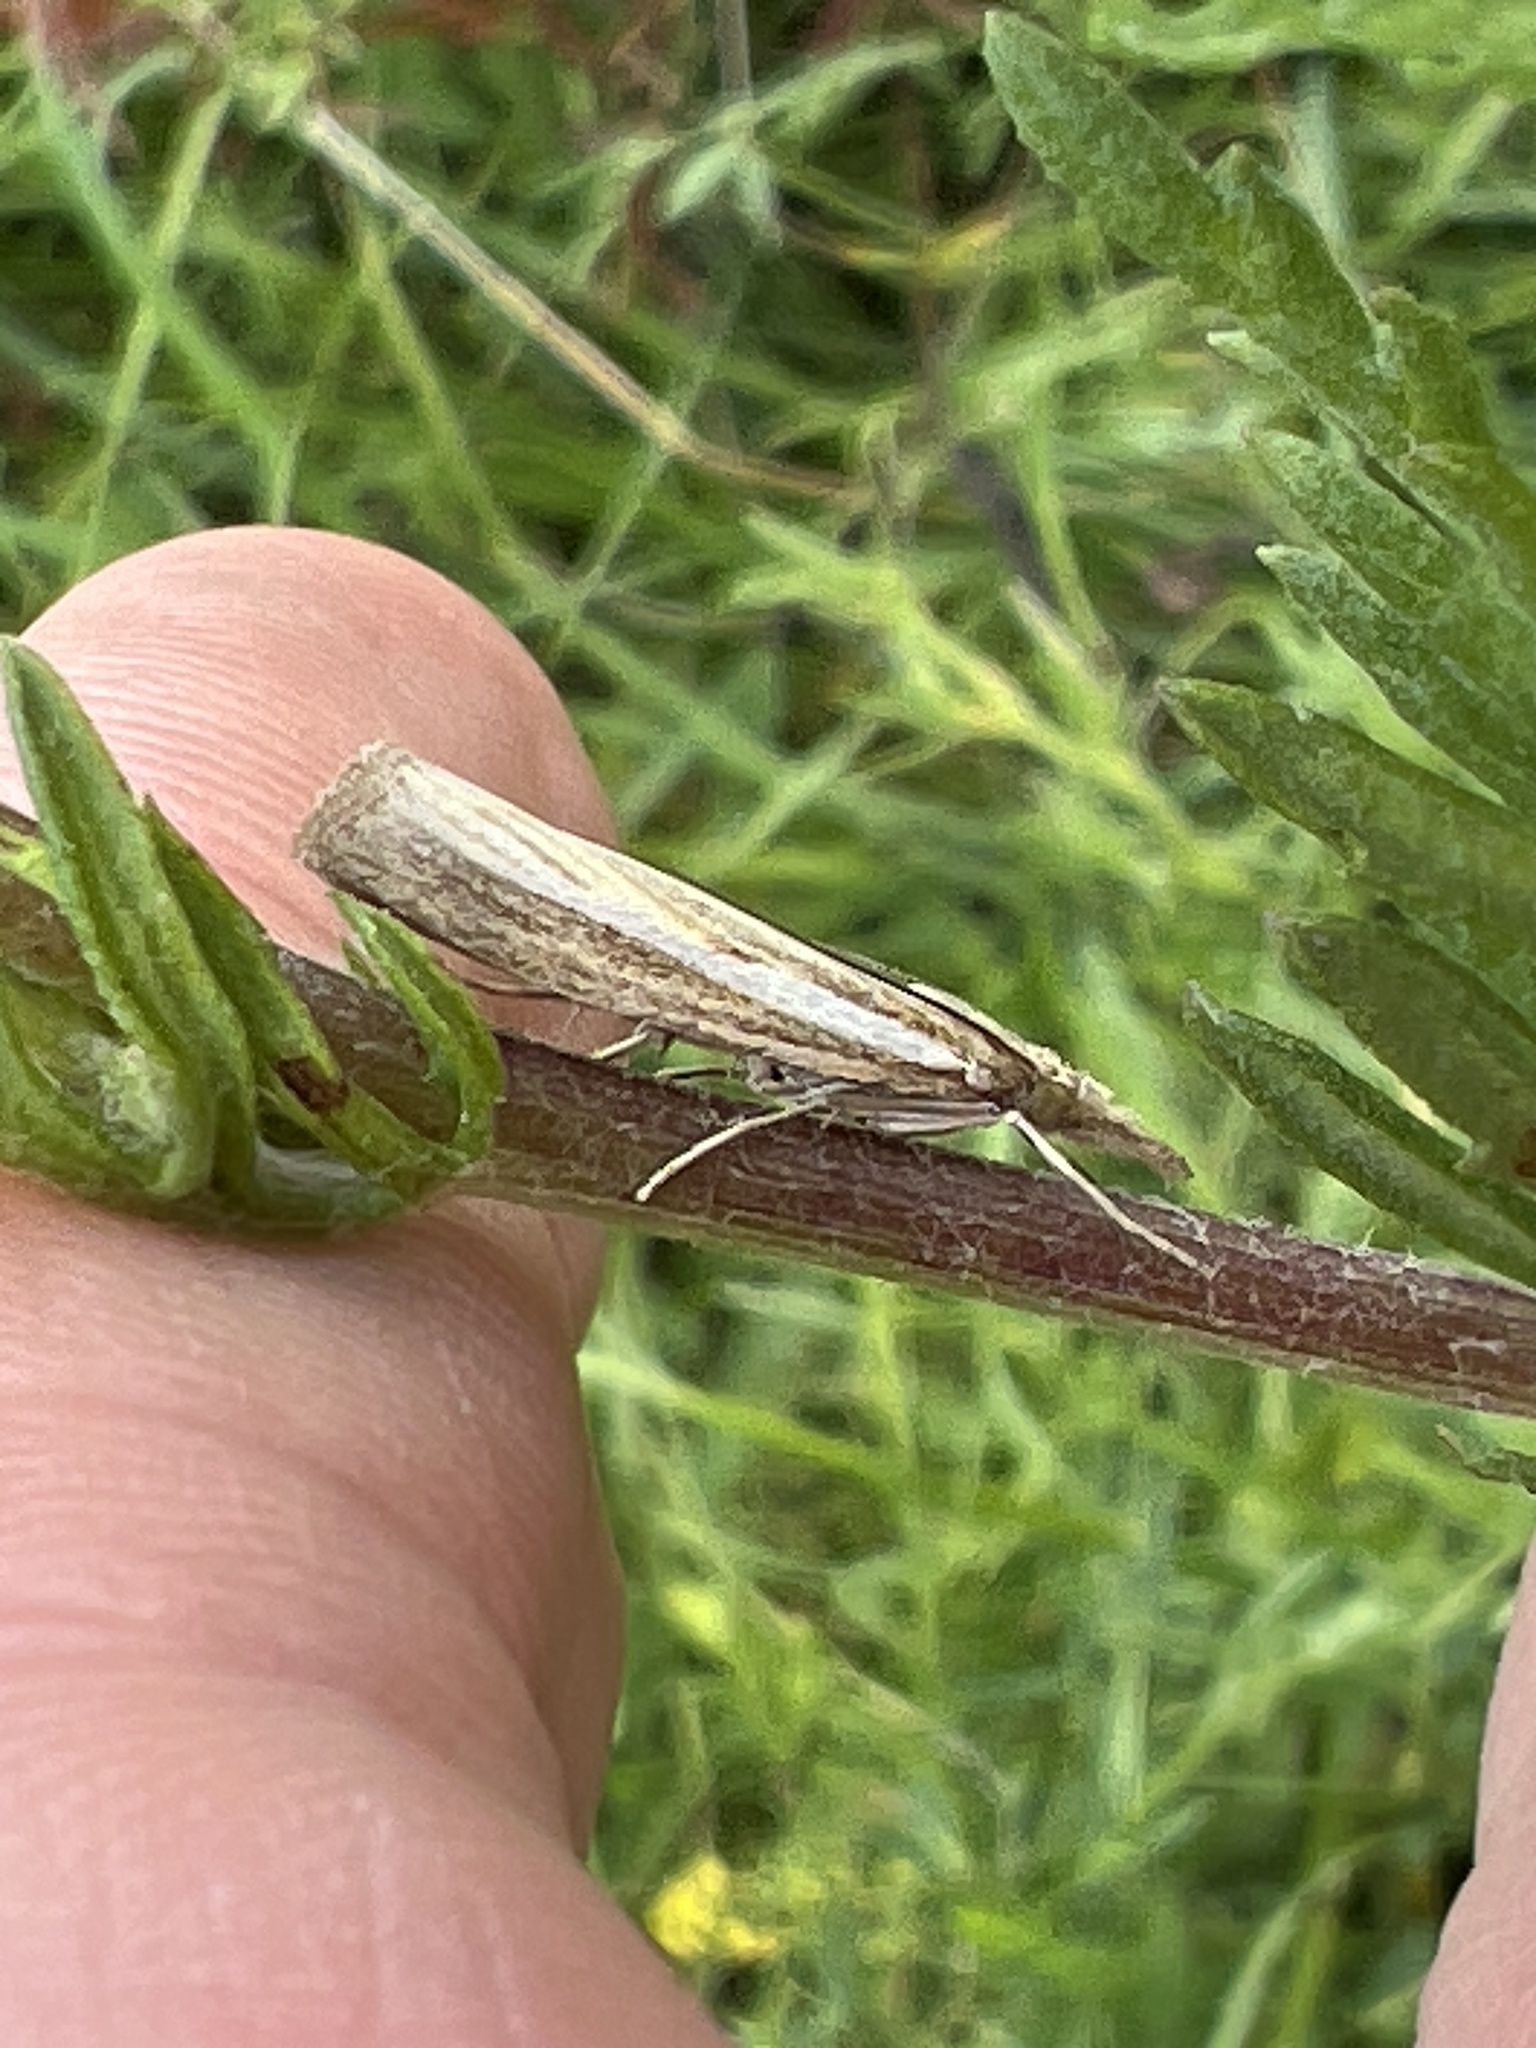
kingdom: Animalia
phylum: Arthropoda
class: Insecta
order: Lepidoptera
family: Crambidae
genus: Agriphila
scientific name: Agriphila tristellus
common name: Common grass-veneer
